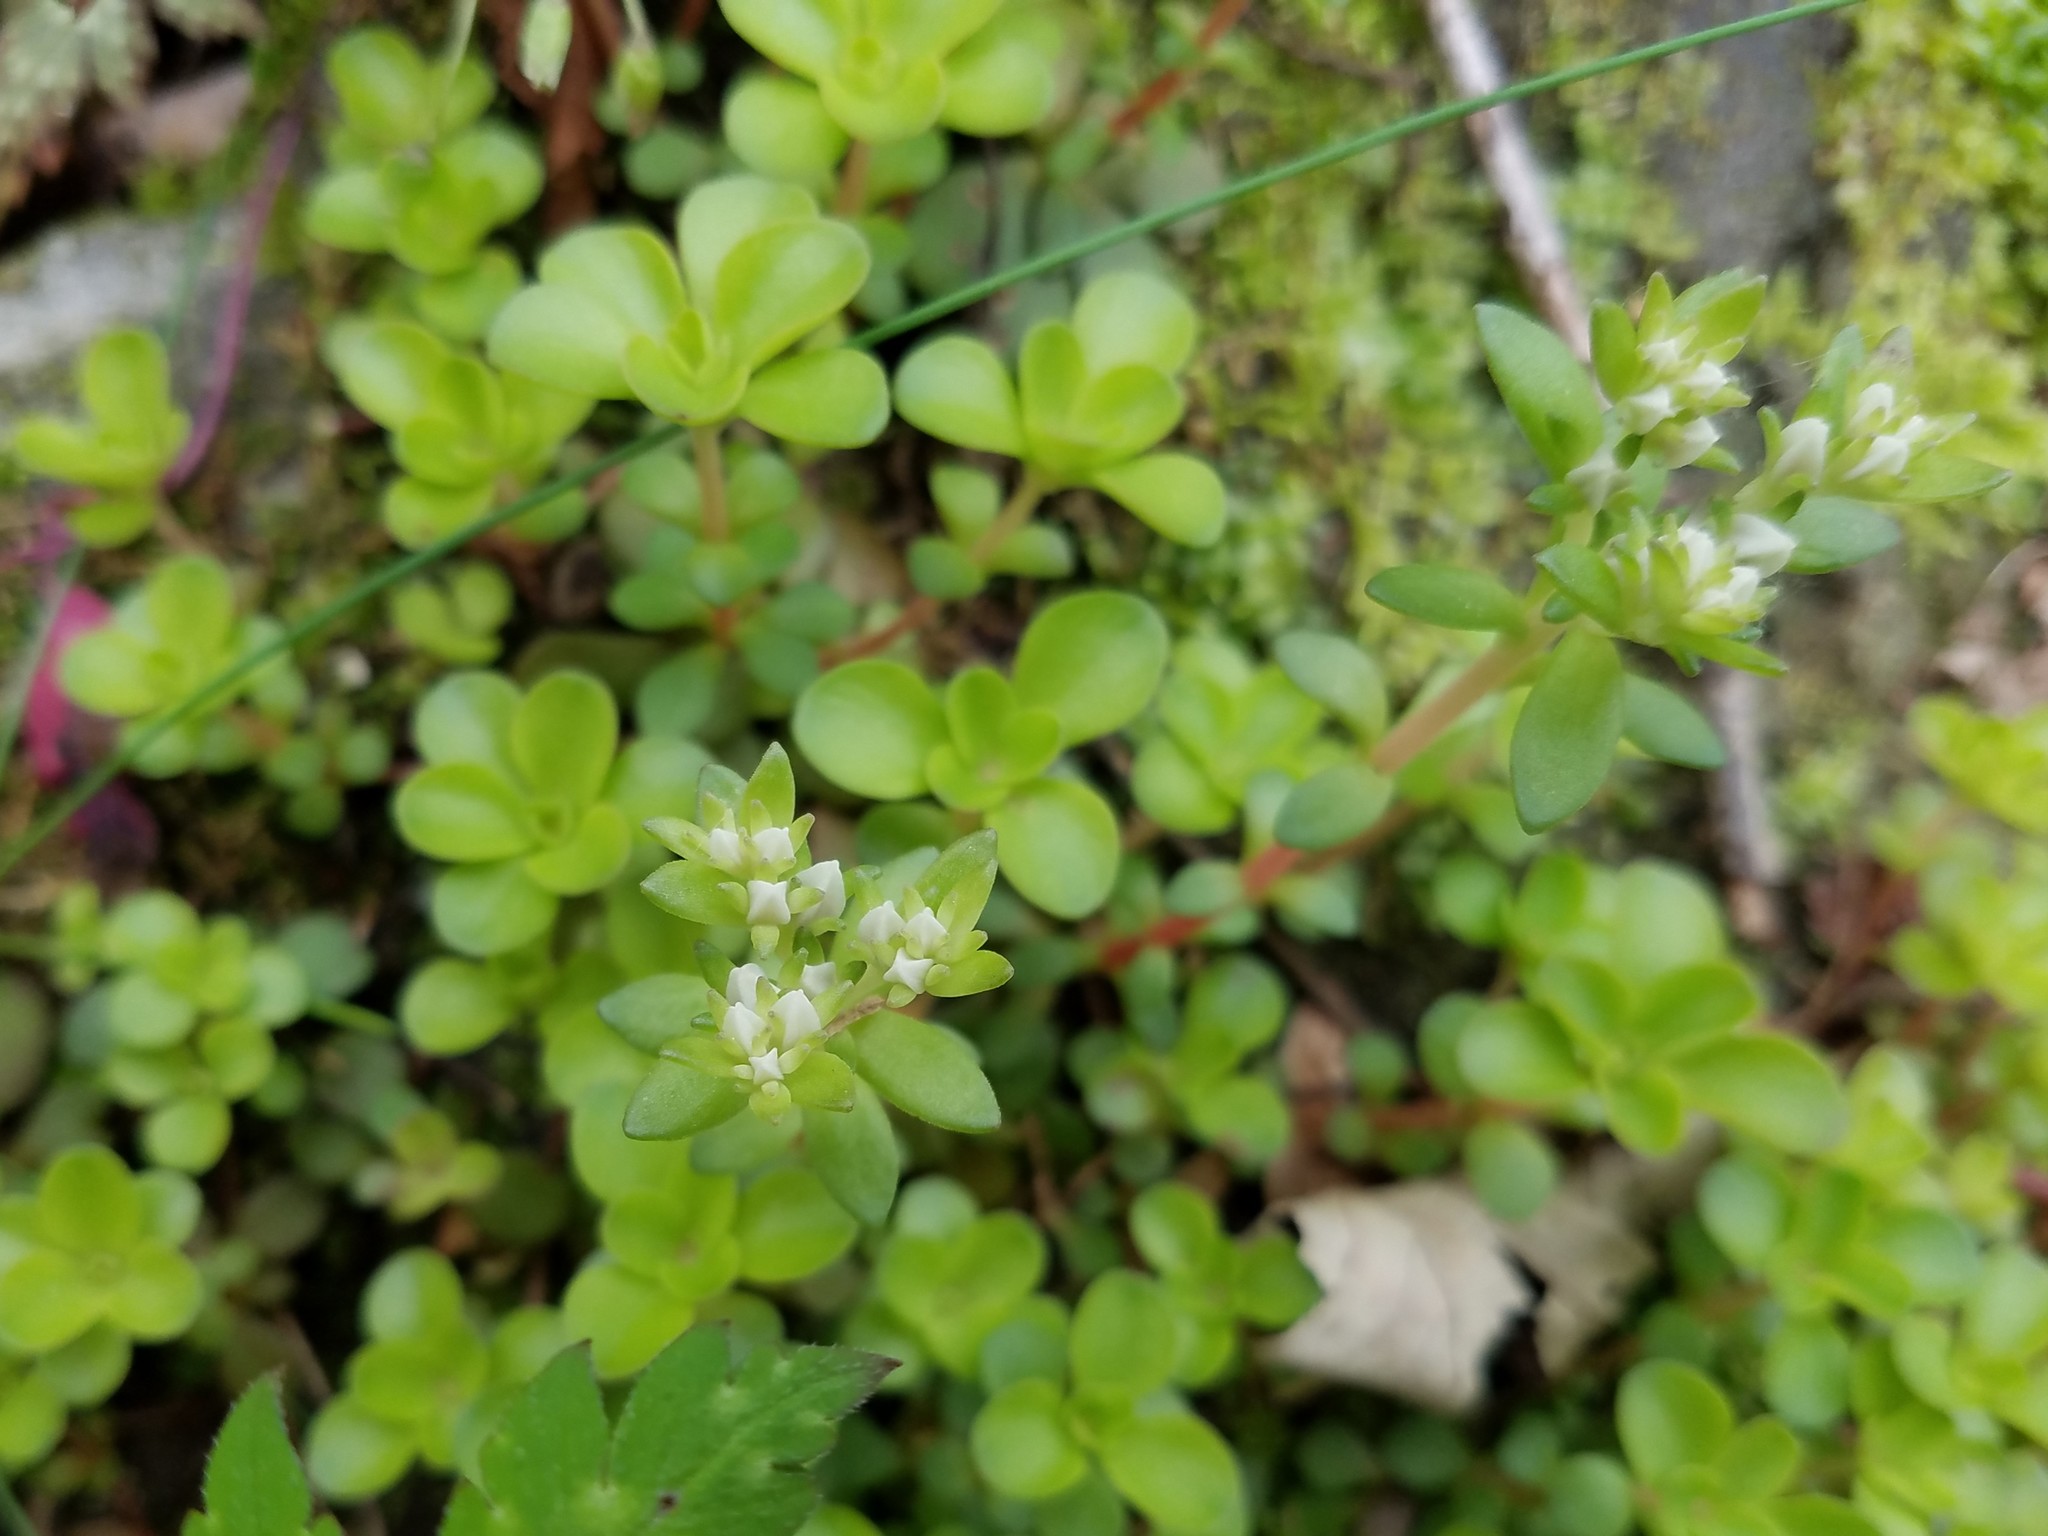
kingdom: Plantae
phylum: Tracheophyta
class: Magnoliopsida
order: Saxifragales
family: Crassulaceae
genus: Sedum
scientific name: Sedum ternatum
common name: Wild stonecrop
